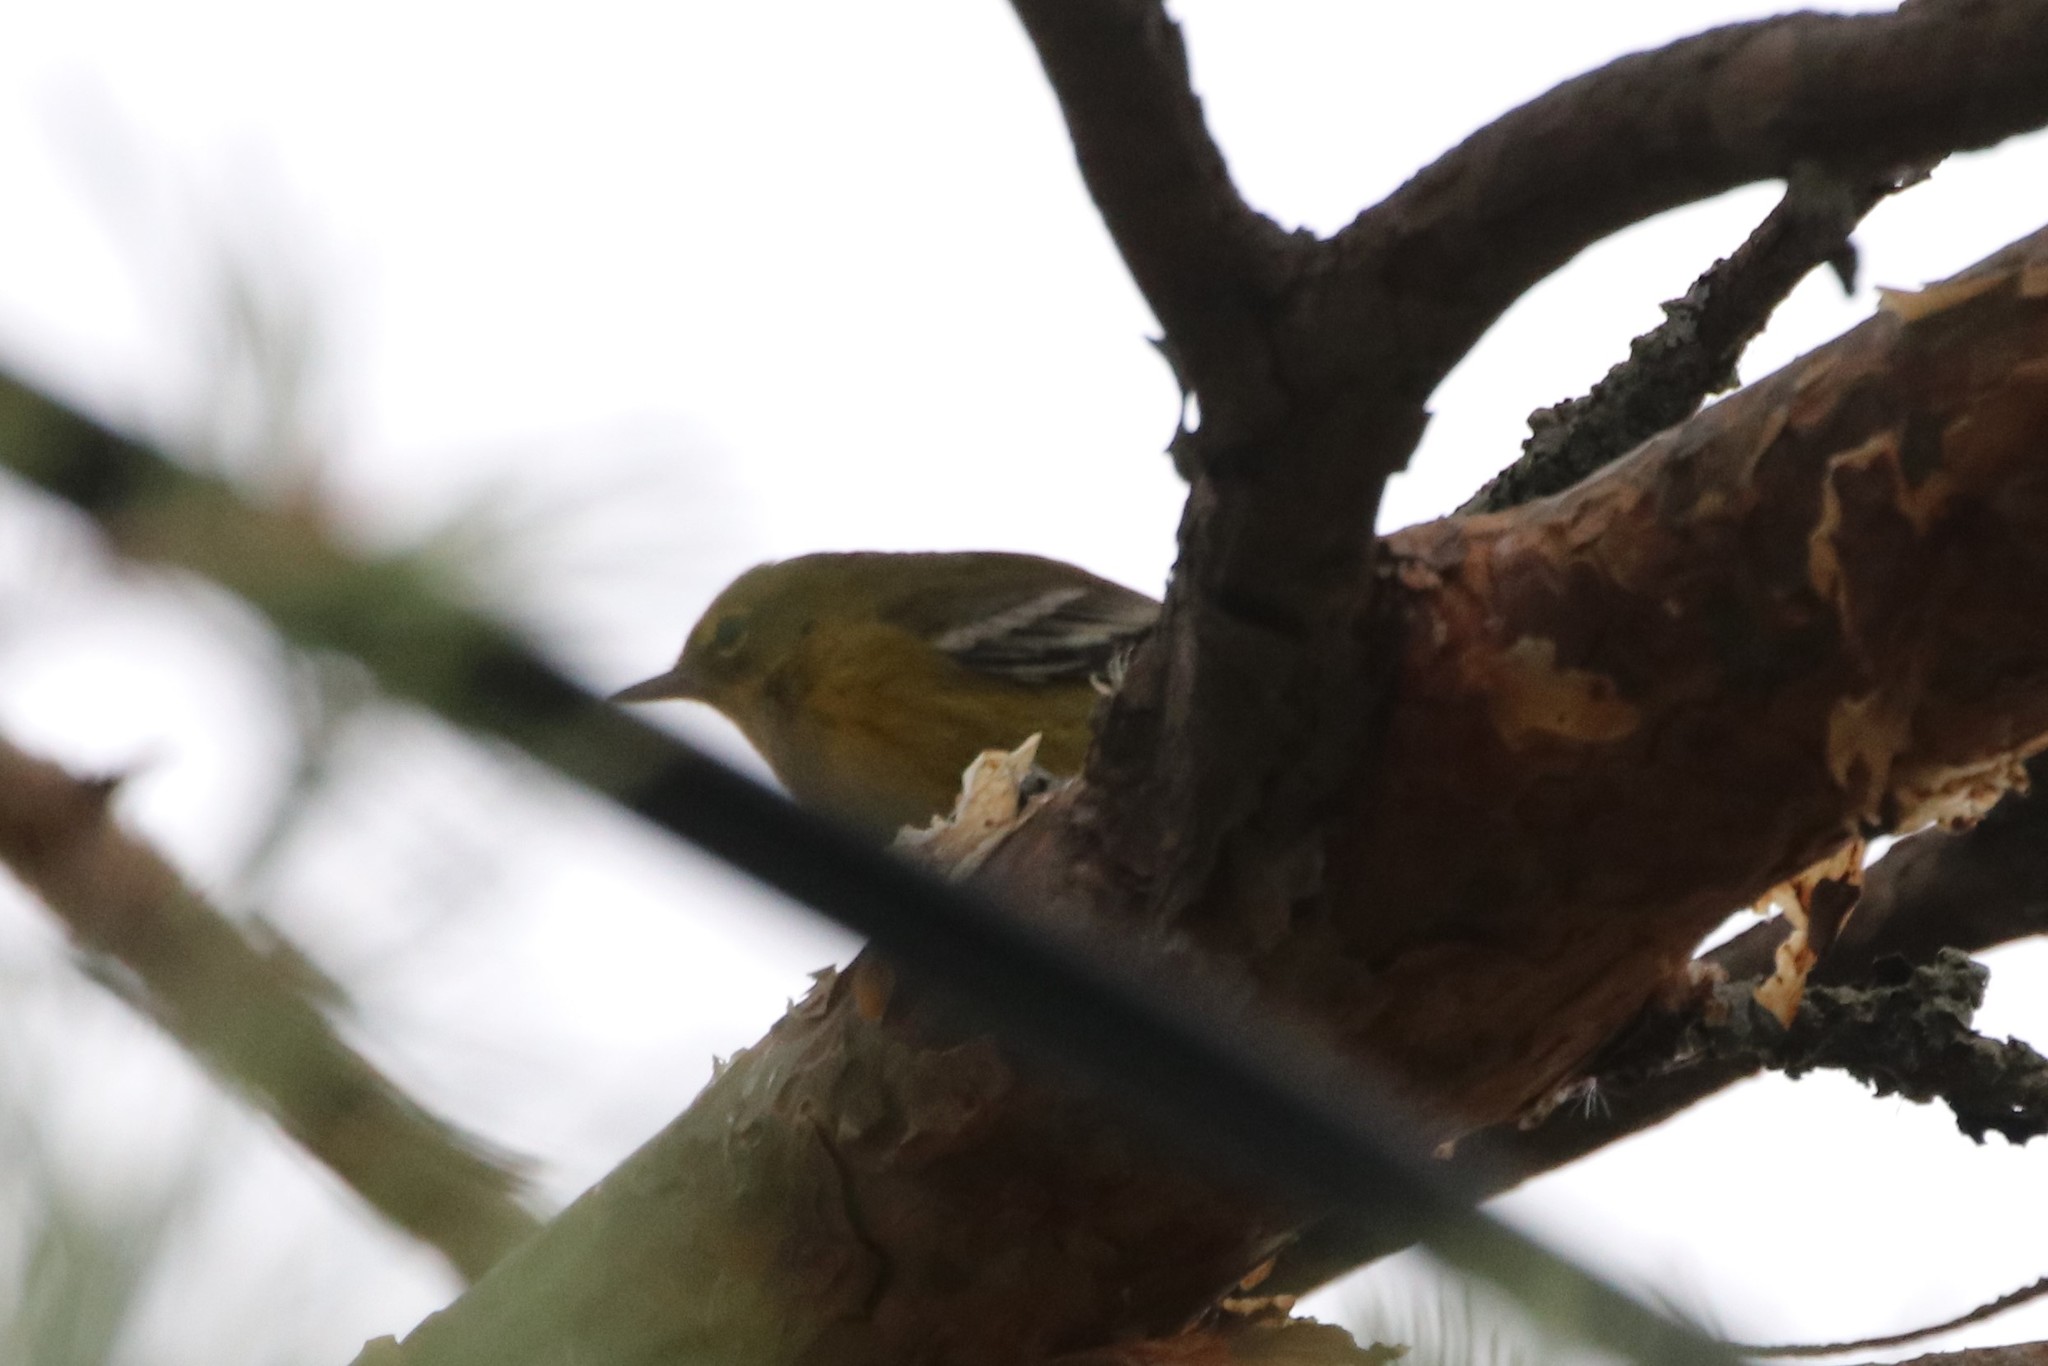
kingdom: Animalia
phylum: Chordata
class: Aves
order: Passeriformes
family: Parulidae
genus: Setophaga
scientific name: Setophaga pinus
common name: Pine warbler
